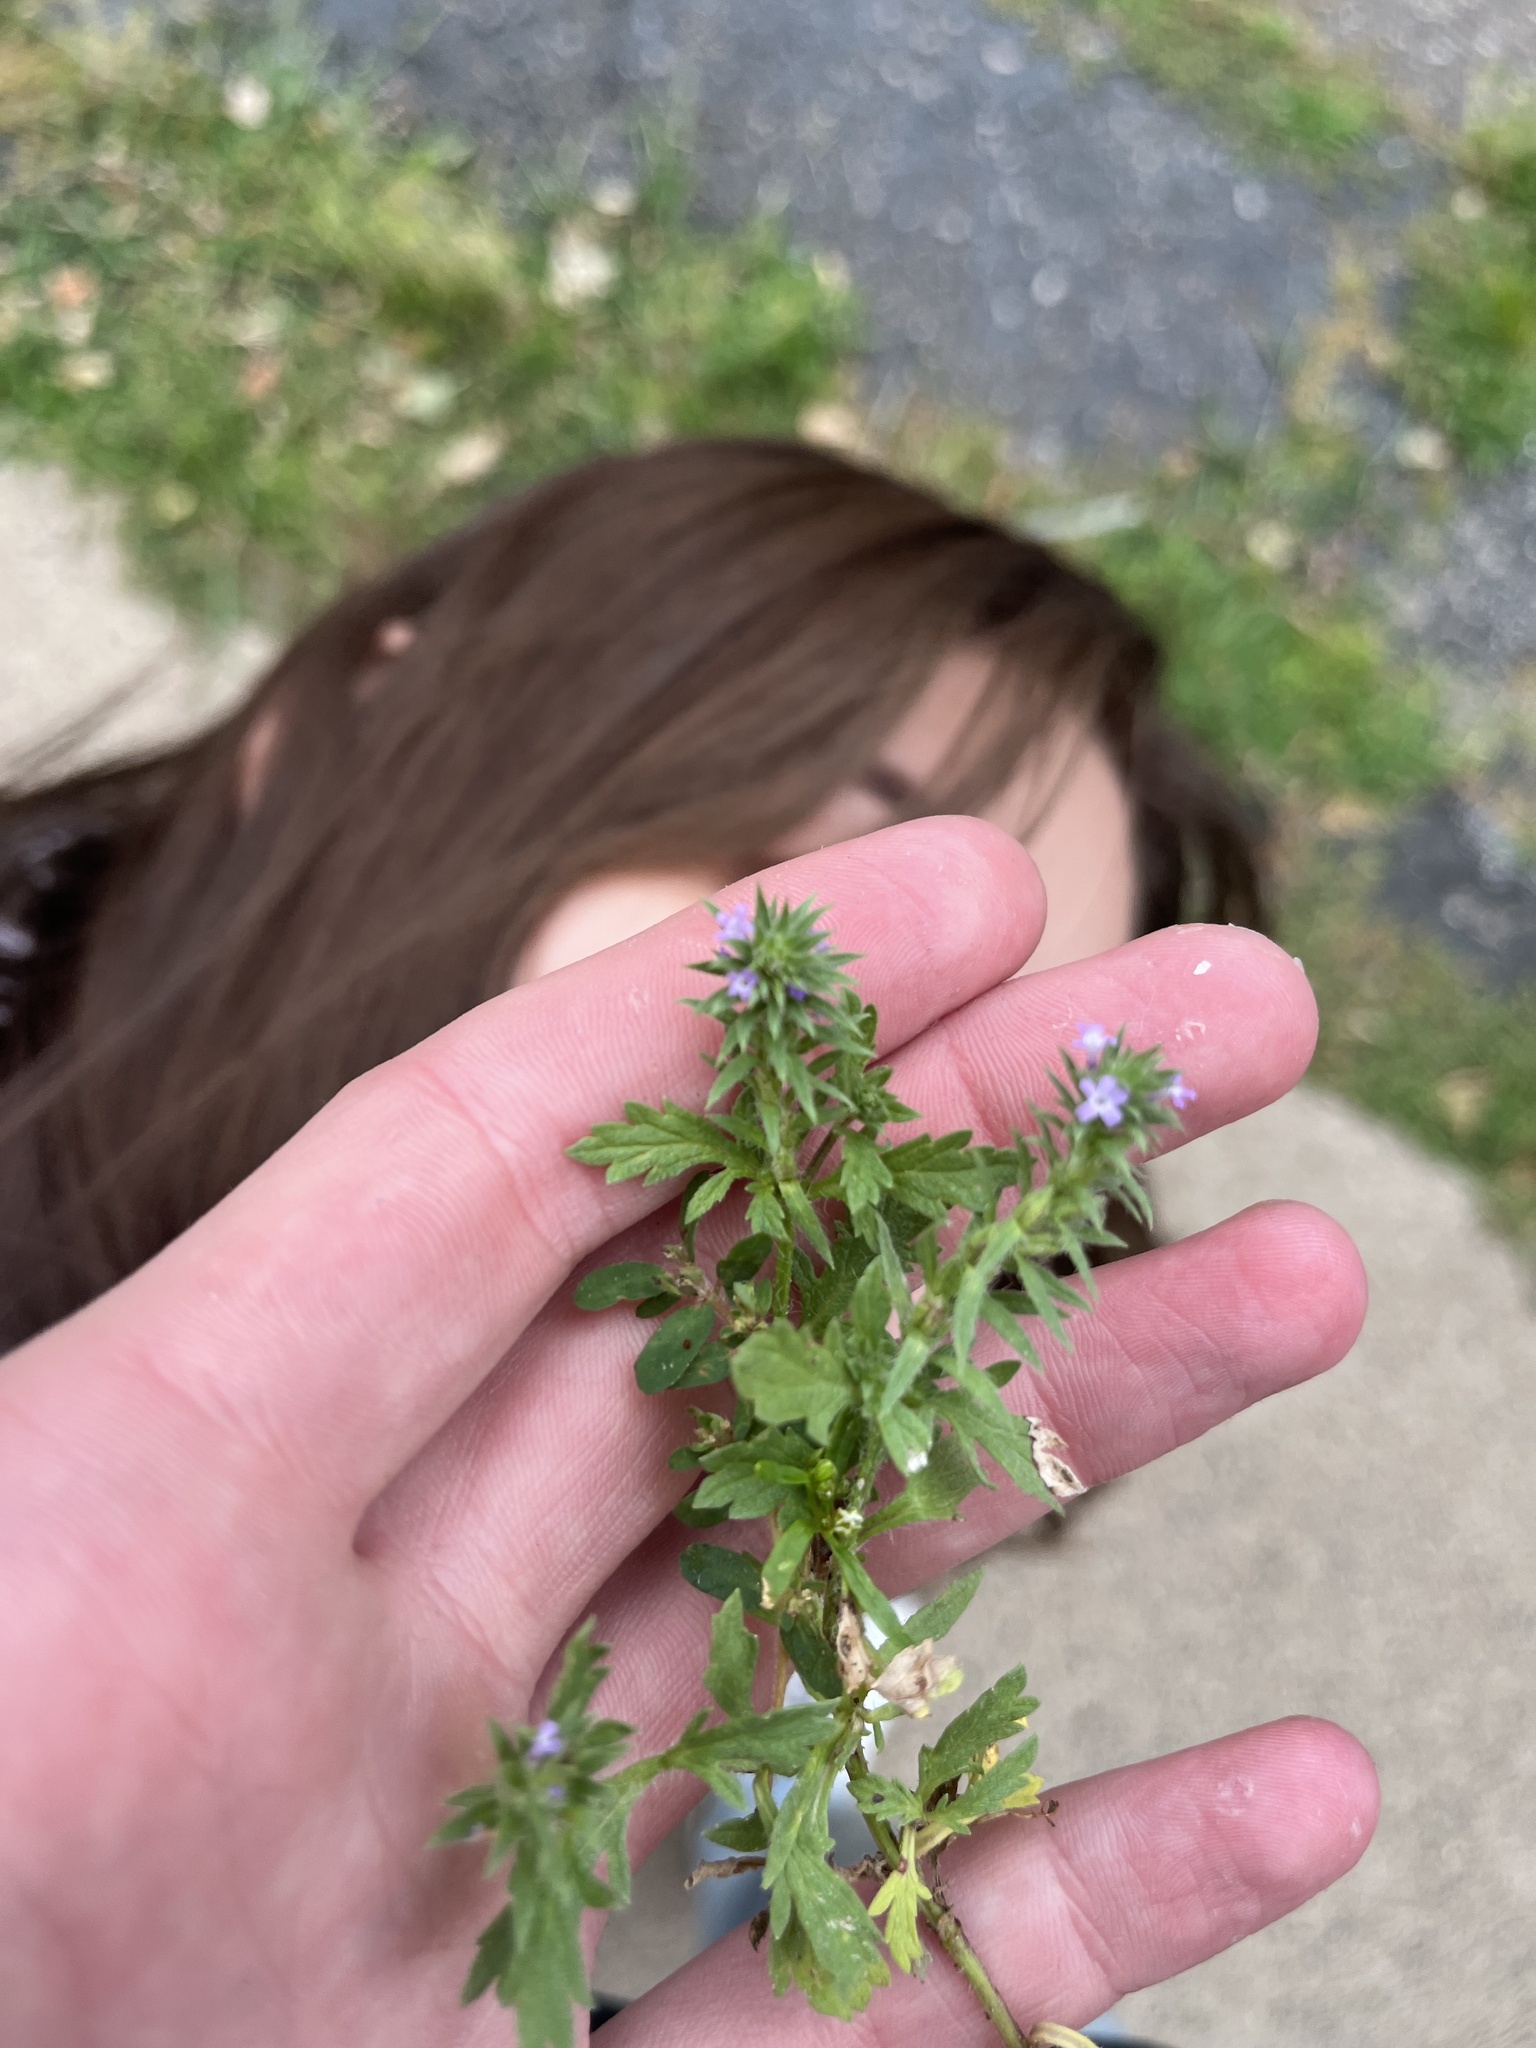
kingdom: Plantae
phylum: Tracheophyta
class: Magnoliopsida
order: Lamiales
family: Verbenaceae
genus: Verbena
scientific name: Verbena bracteata
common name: Bracted vervain
